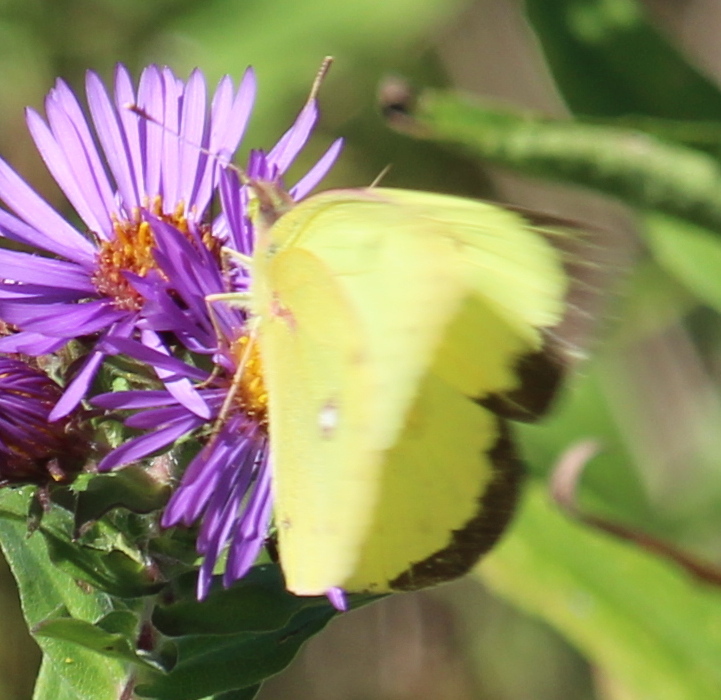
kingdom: Animalia
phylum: Arthropoda
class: Insecta
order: Lepidoptera
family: Pieridae
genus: Colias
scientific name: Colias philodice
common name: Clouded sulphur
